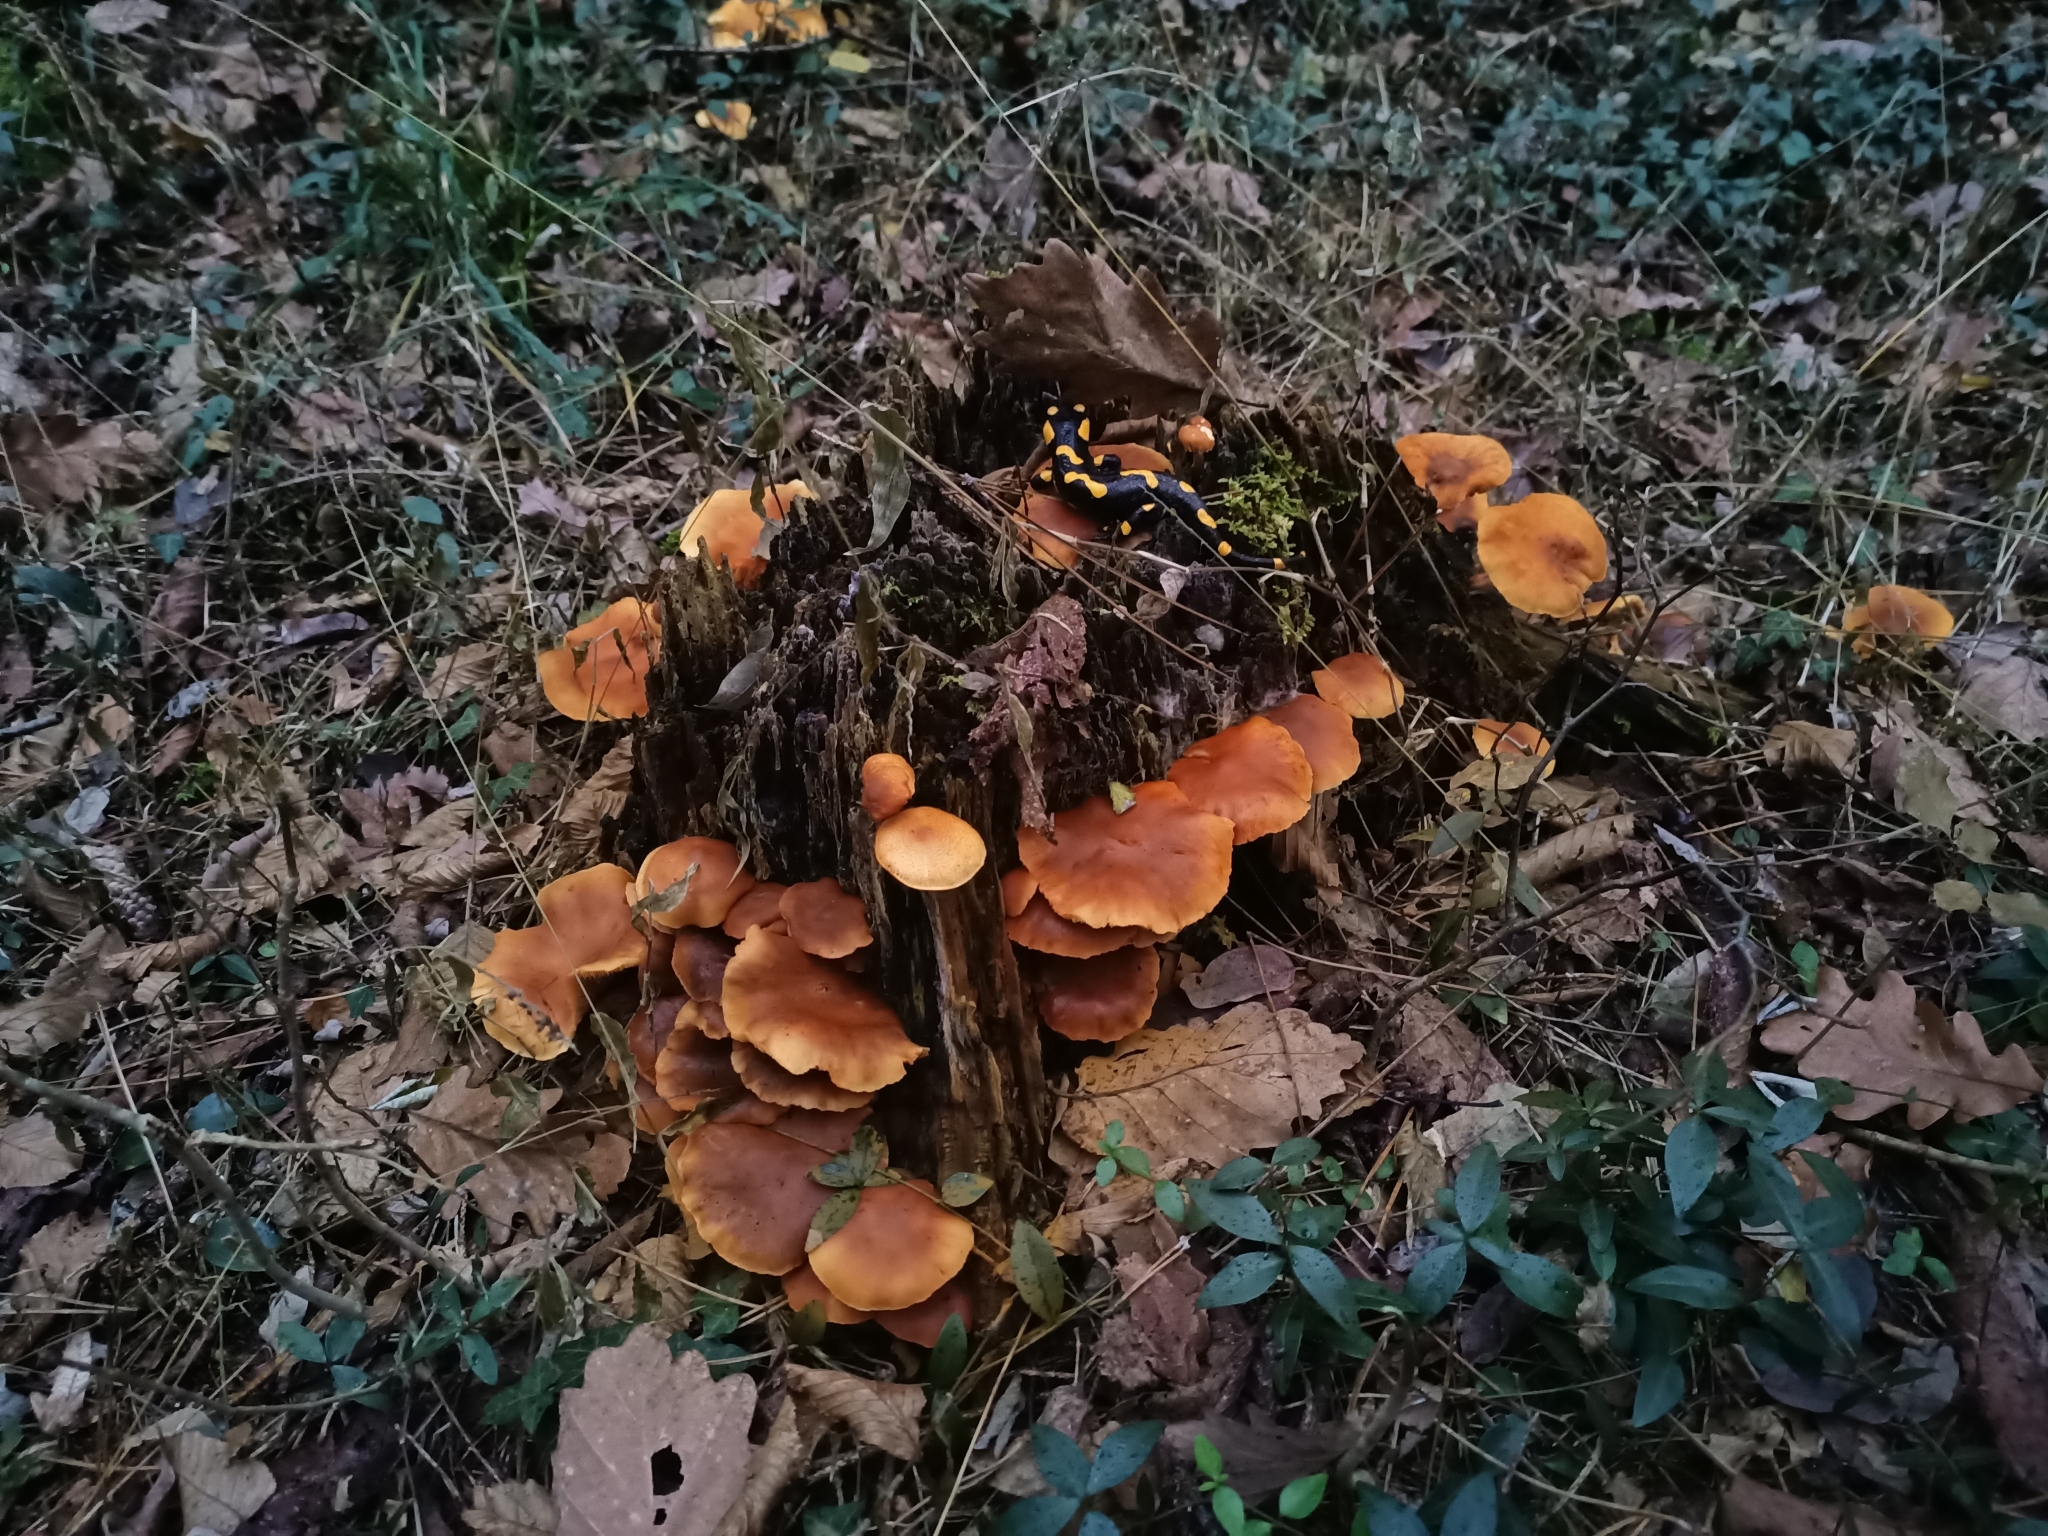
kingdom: Fungi
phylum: Basidiomycota
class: Agaricomycetes
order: Agaricales
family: Hymenogastraceae
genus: Gymnopilus
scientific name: Gymnopilus penetrans
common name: Common rustgill
